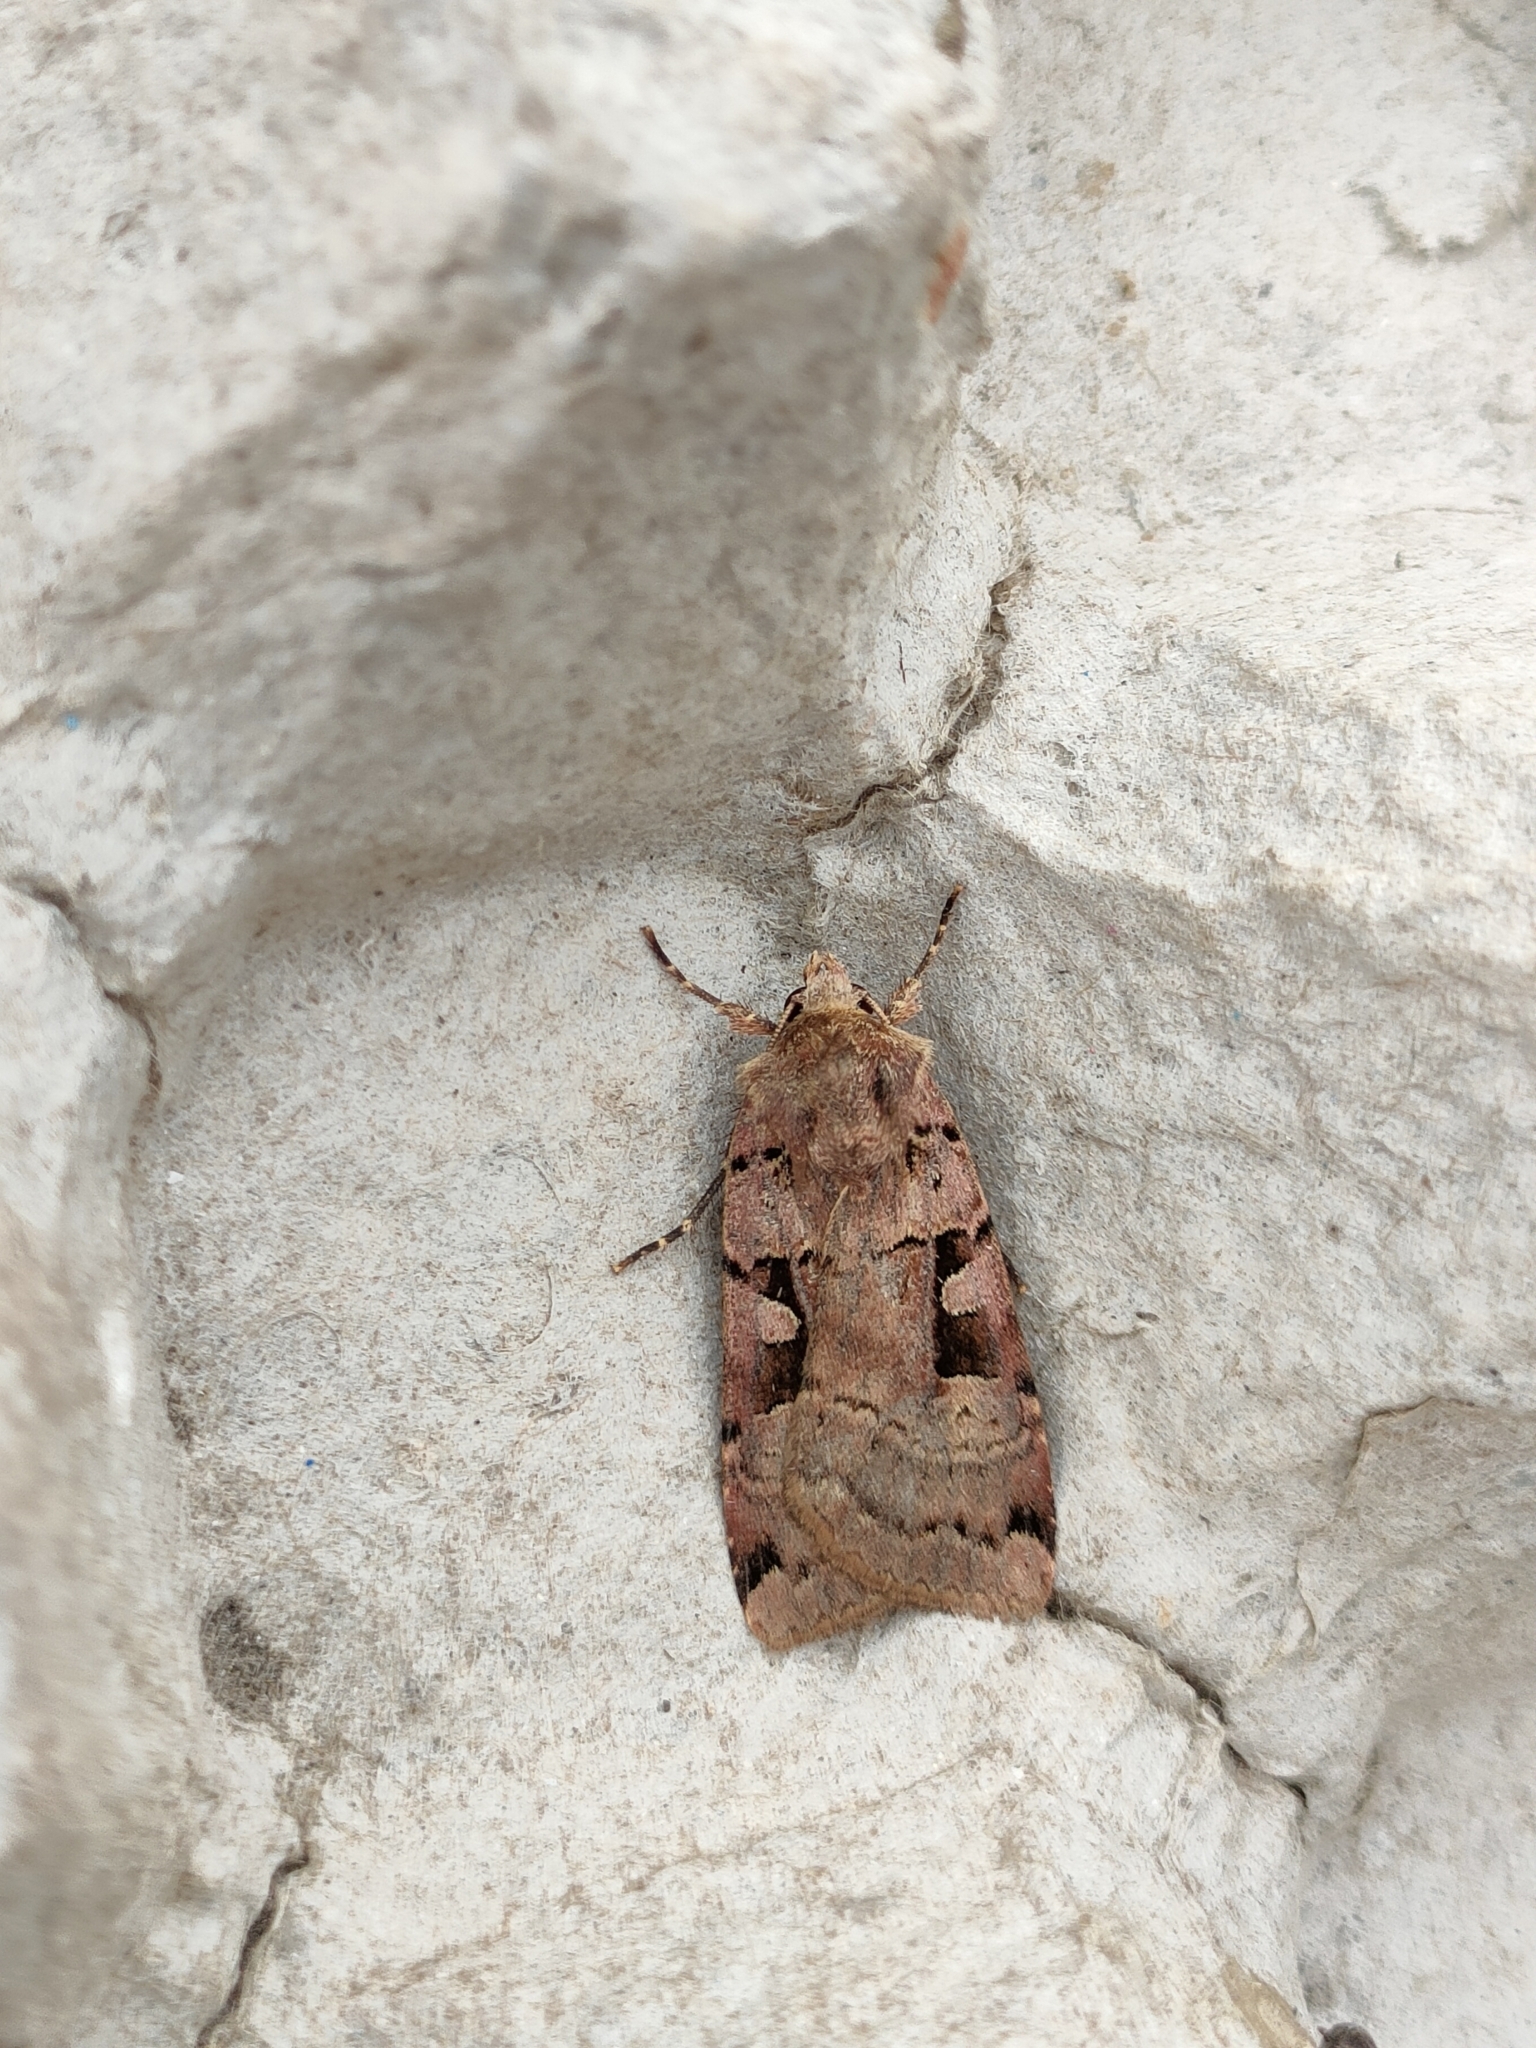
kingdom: Animalia
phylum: Arthropoda
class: Insecta
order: Lepidoptera
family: Noctuidae
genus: Xestia
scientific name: Xestia triangulum
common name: Double square-spot
